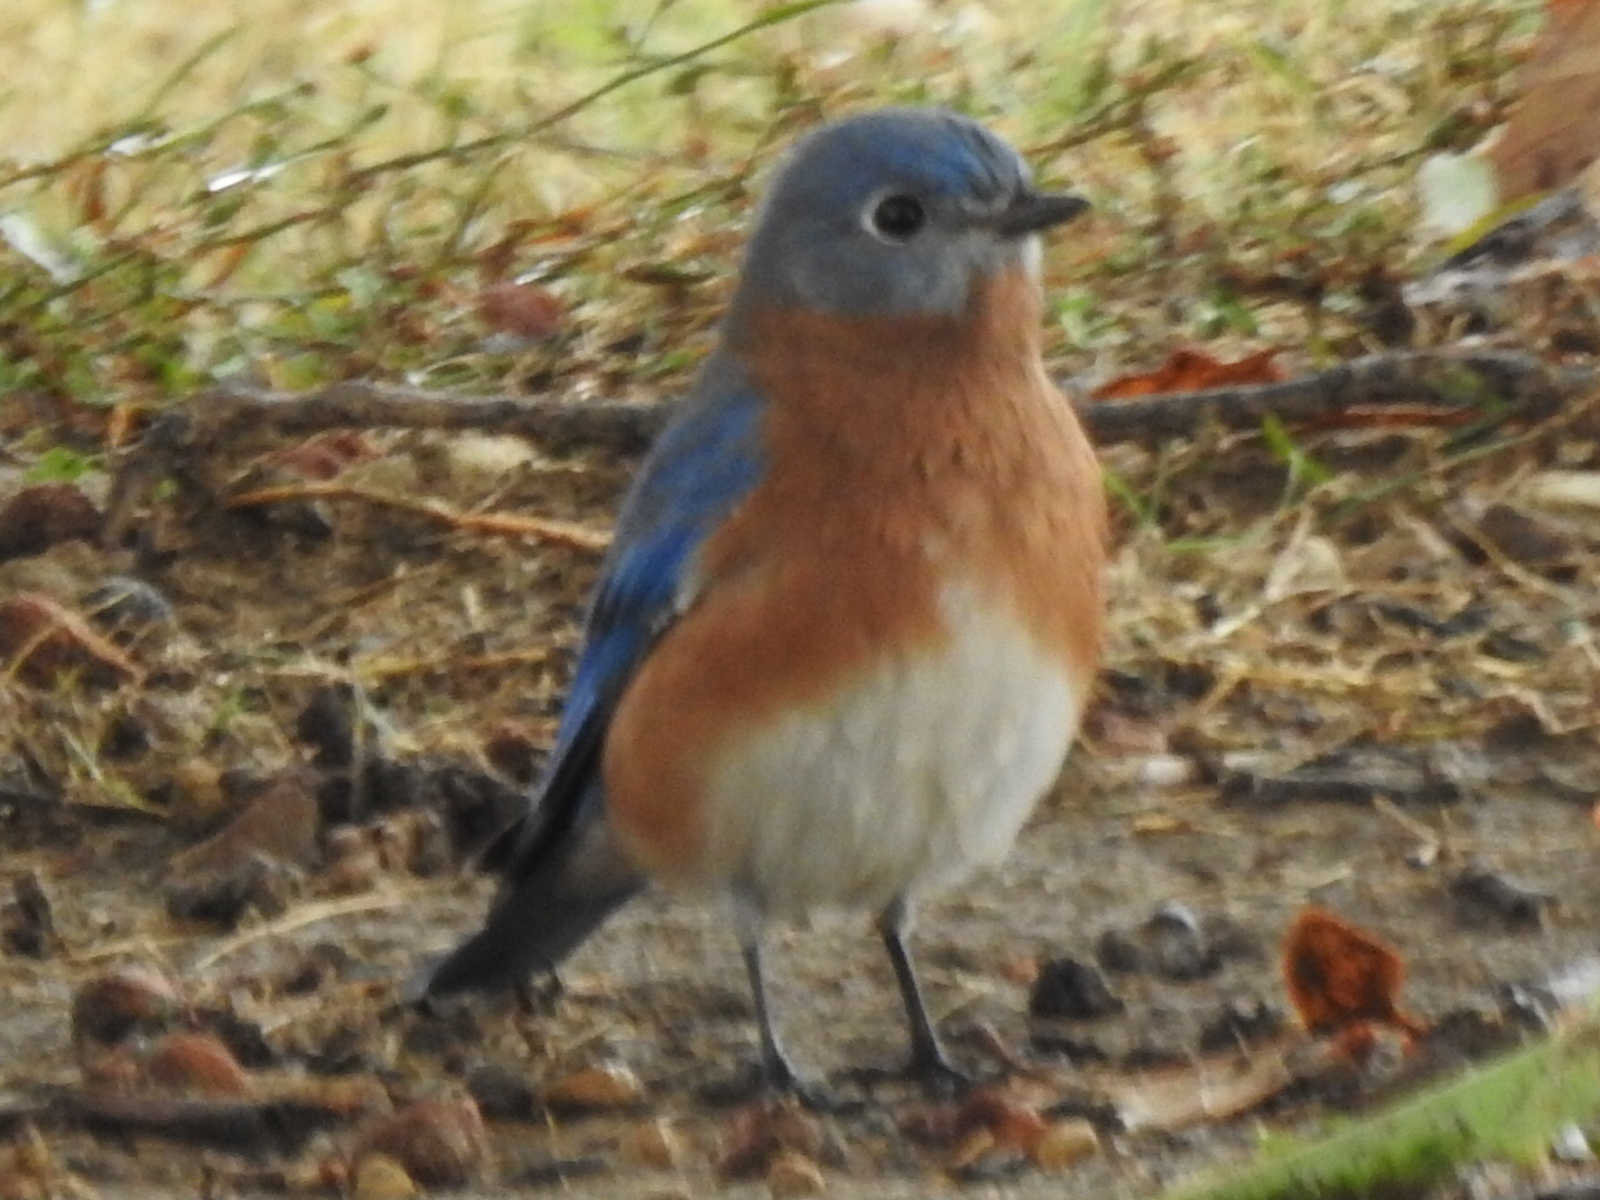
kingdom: Animalia
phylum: Chordata
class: Aves
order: Passeriformes
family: Turdidae
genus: Sialia
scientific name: Sialia sialis
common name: Eastern bluebird
